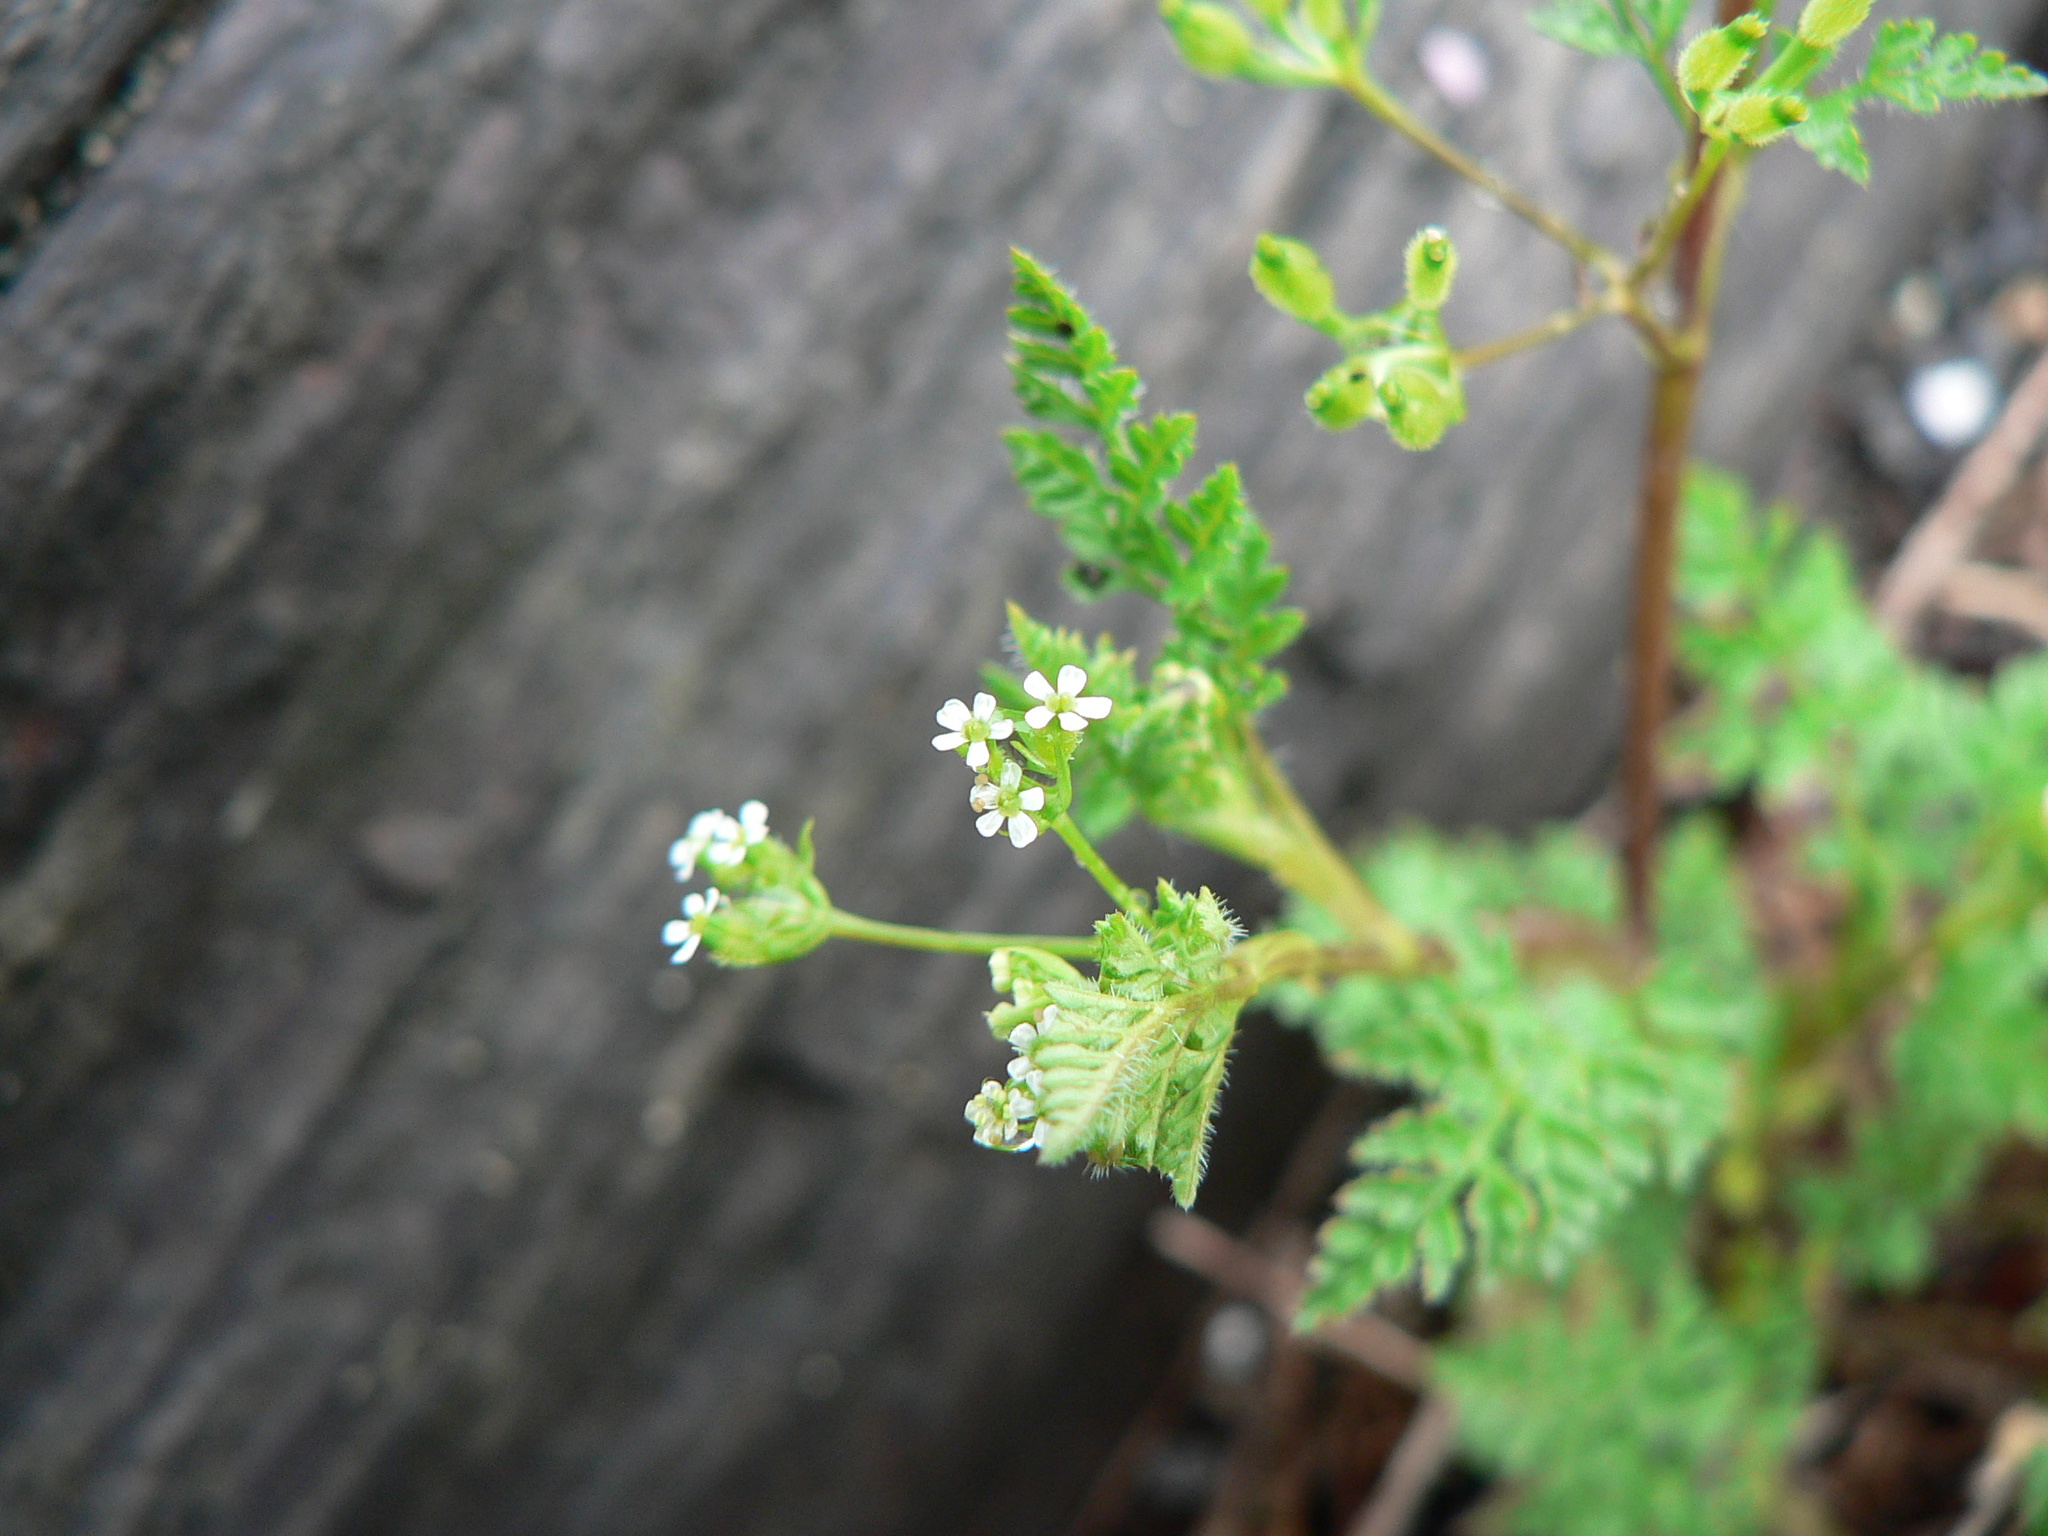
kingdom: Plantae
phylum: Tracheophyta
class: Magnoliopsida
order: Apiales
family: Apiaceae
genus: Anthriscus
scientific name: Anthriscus caucalis
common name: Bur chervil
